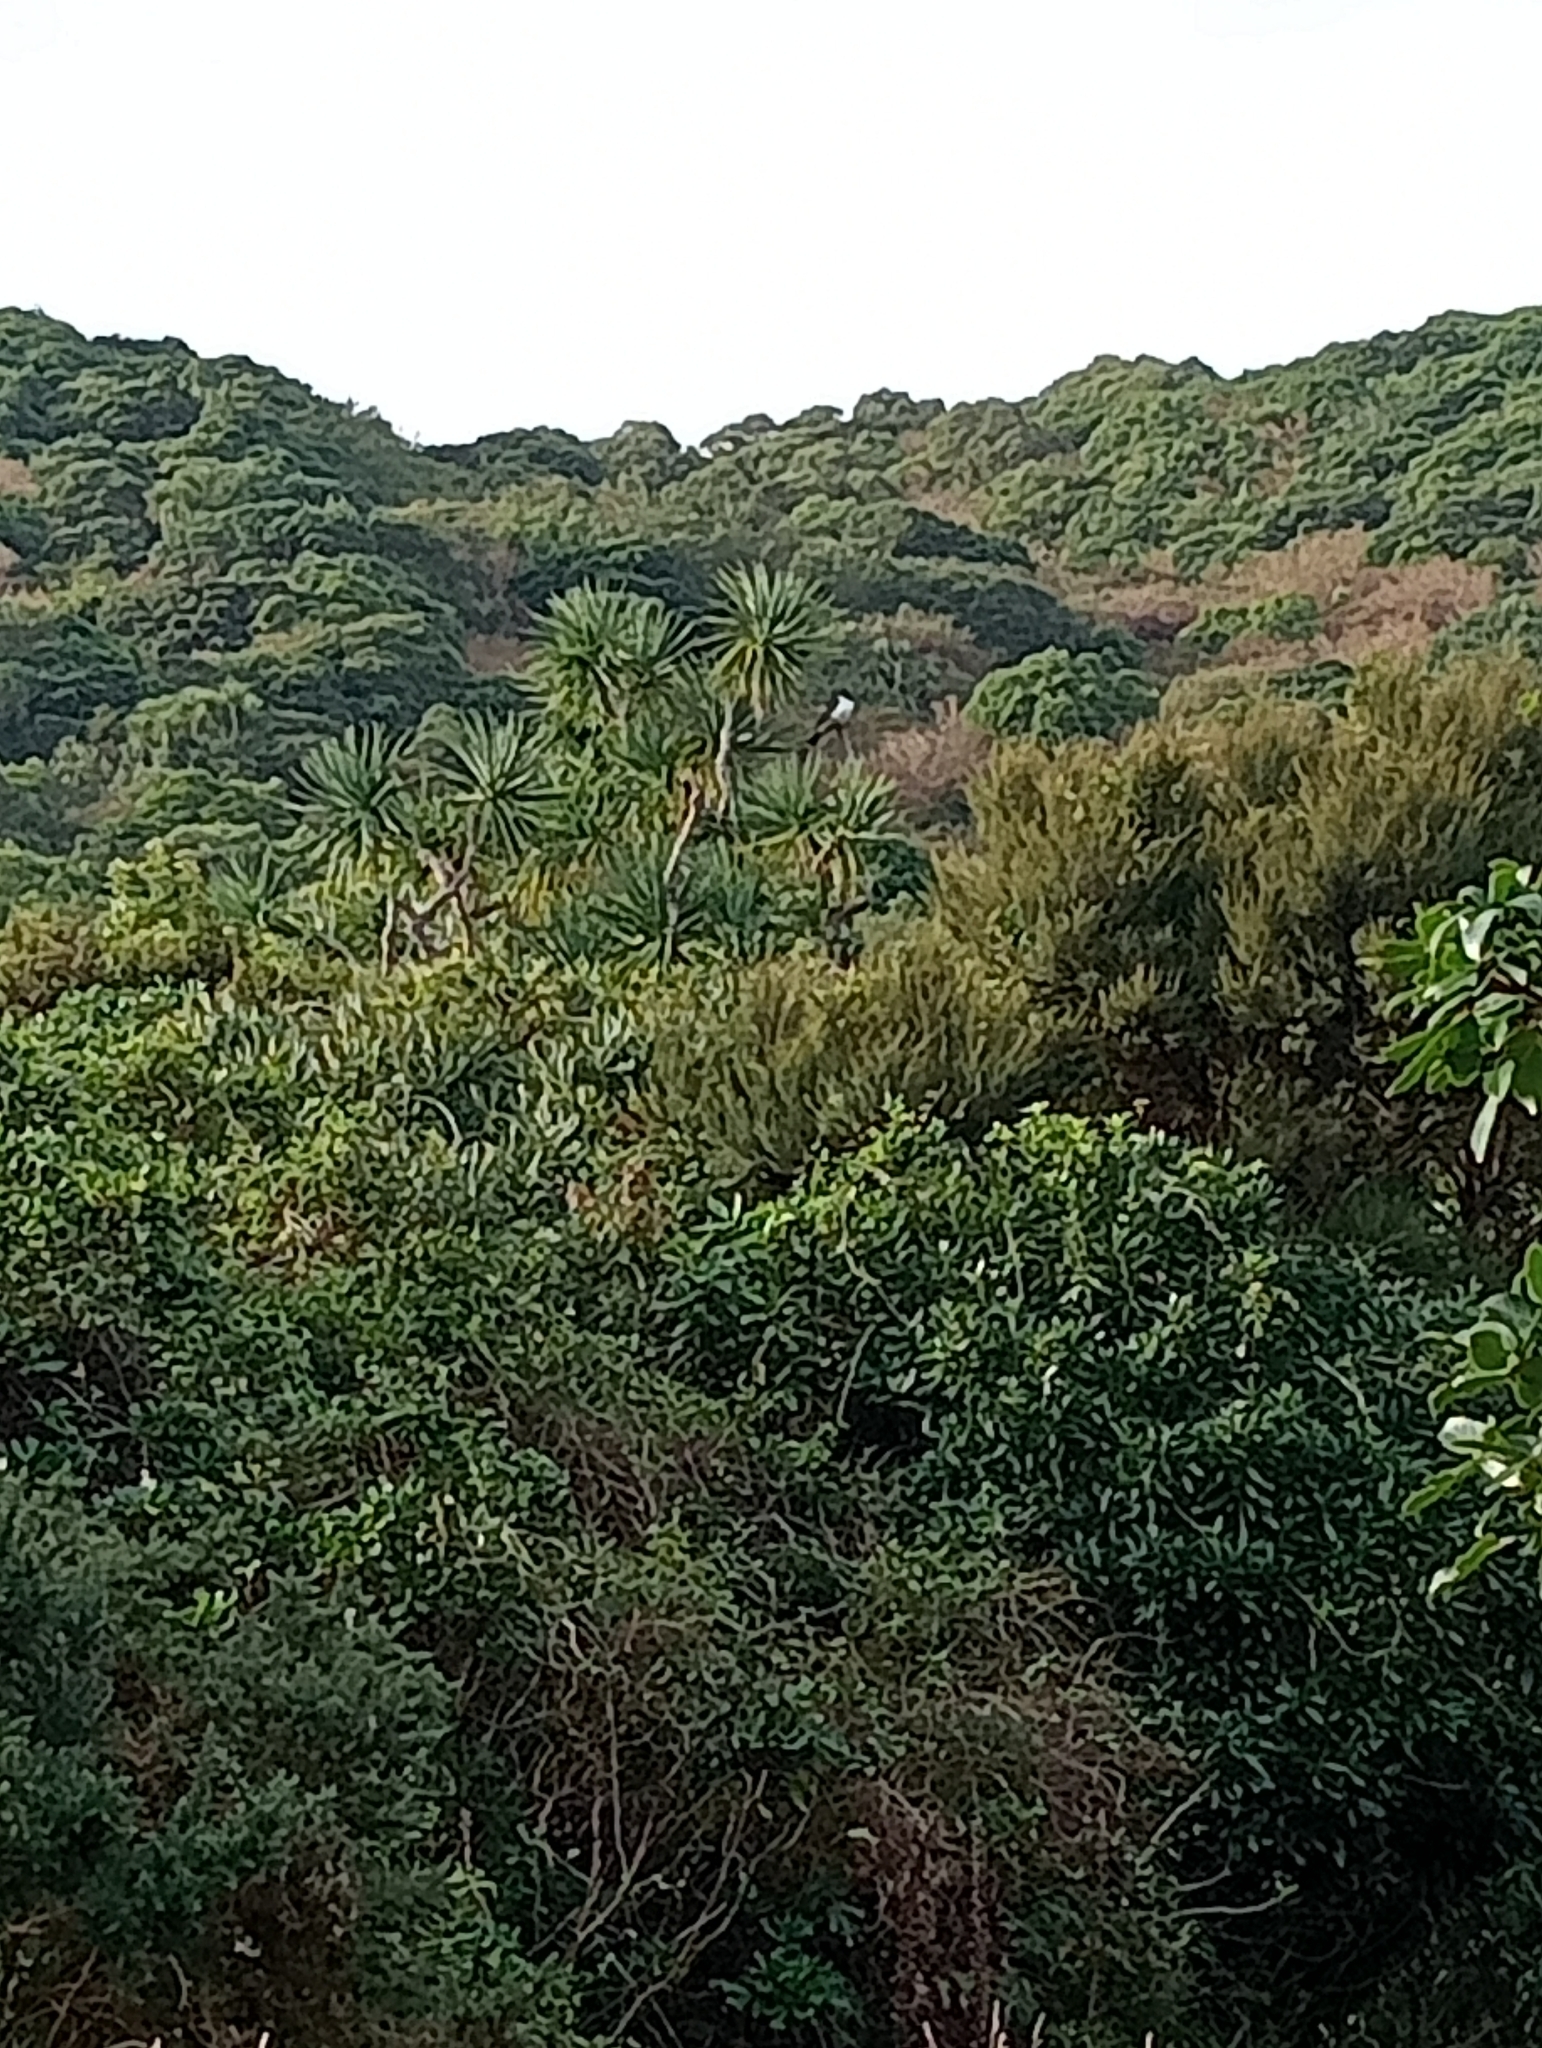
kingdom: Plantae
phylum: Tracheophyta
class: Liliopsida
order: Asparagales
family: Asparagaceae
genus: Cordyline
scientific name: Cordyline australis
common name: Cabbage-palm
